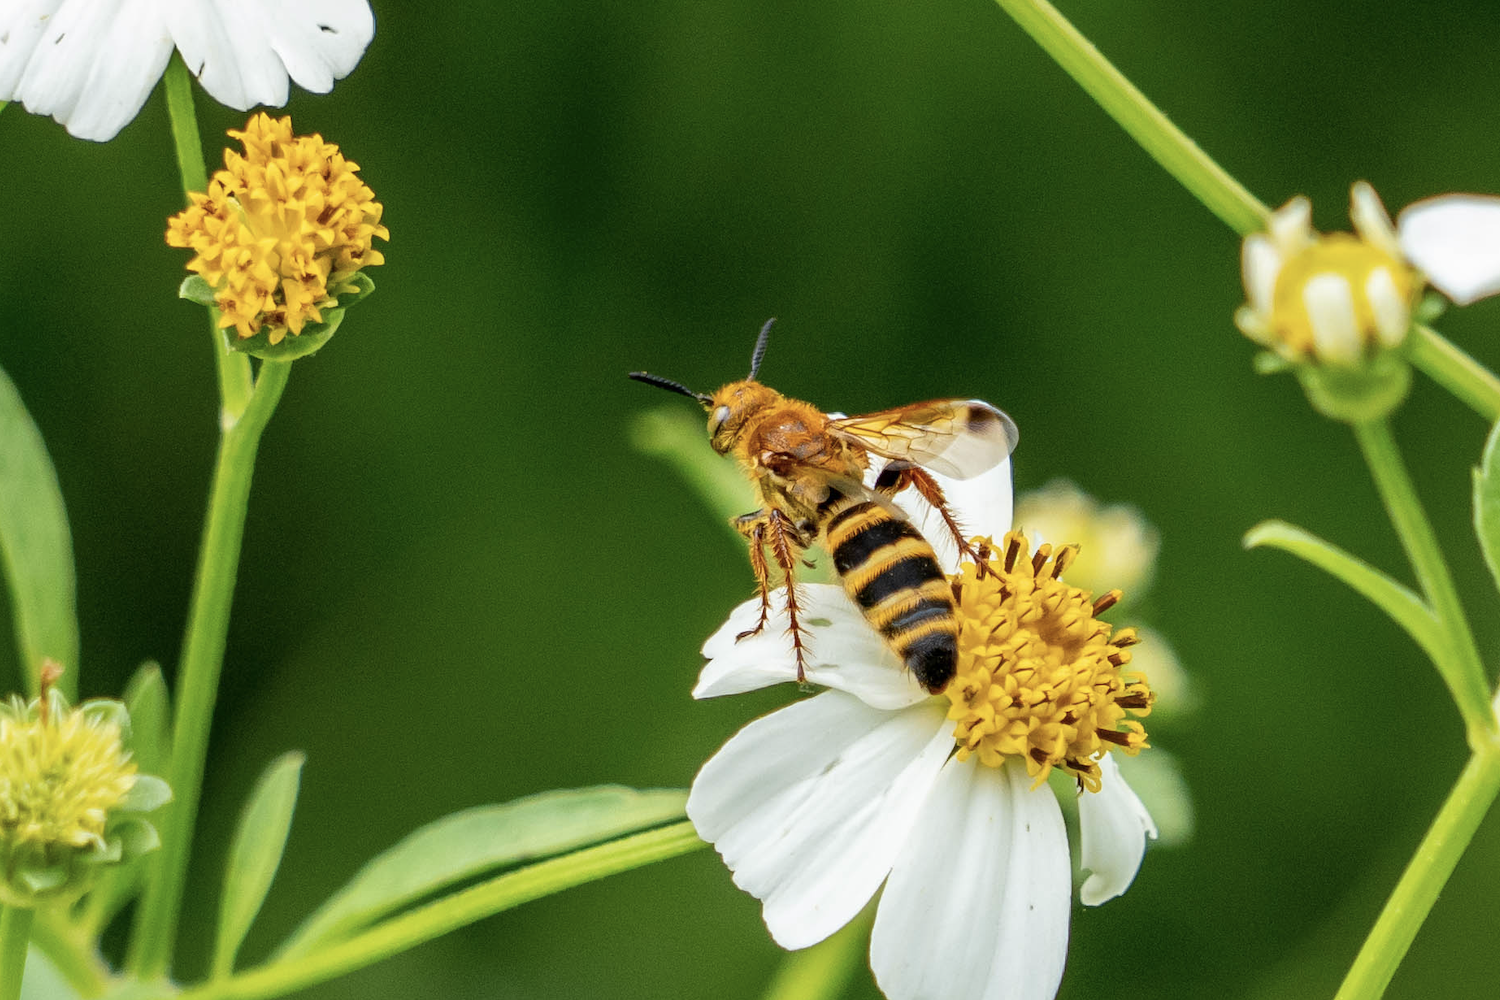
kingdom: Animalia
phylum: Arthropoda
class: Insecta
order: Hymenoptera
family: Scoliidae
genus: Campsomeris
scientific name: Campsomeris phalerata
